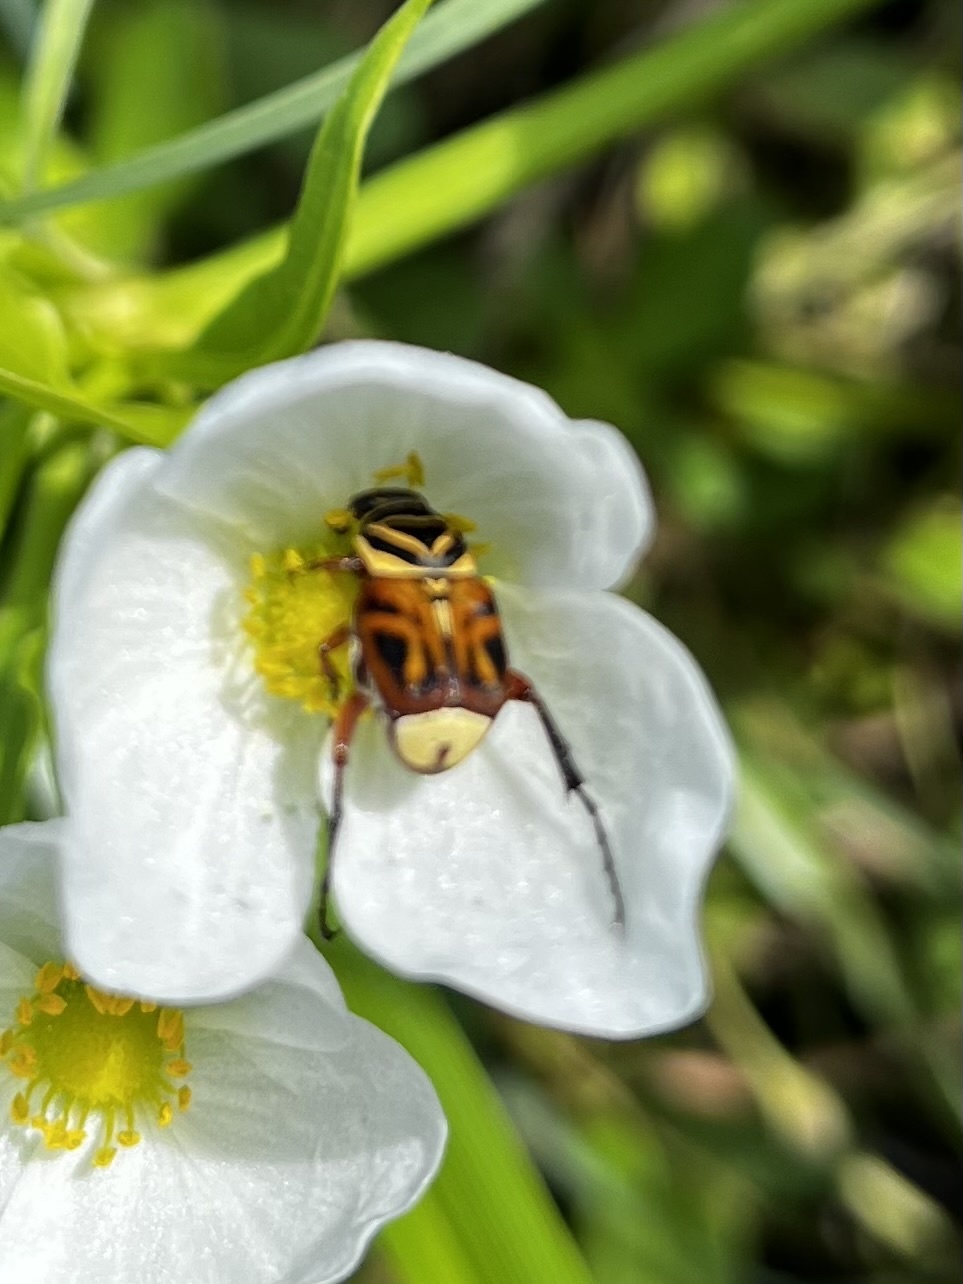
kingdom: Animalia
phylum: Arthropoda
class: Insecta
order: Coleoptera
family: Scarabaeidae
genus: Trigonopeltastes
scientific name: Trigonopeltastes delta
